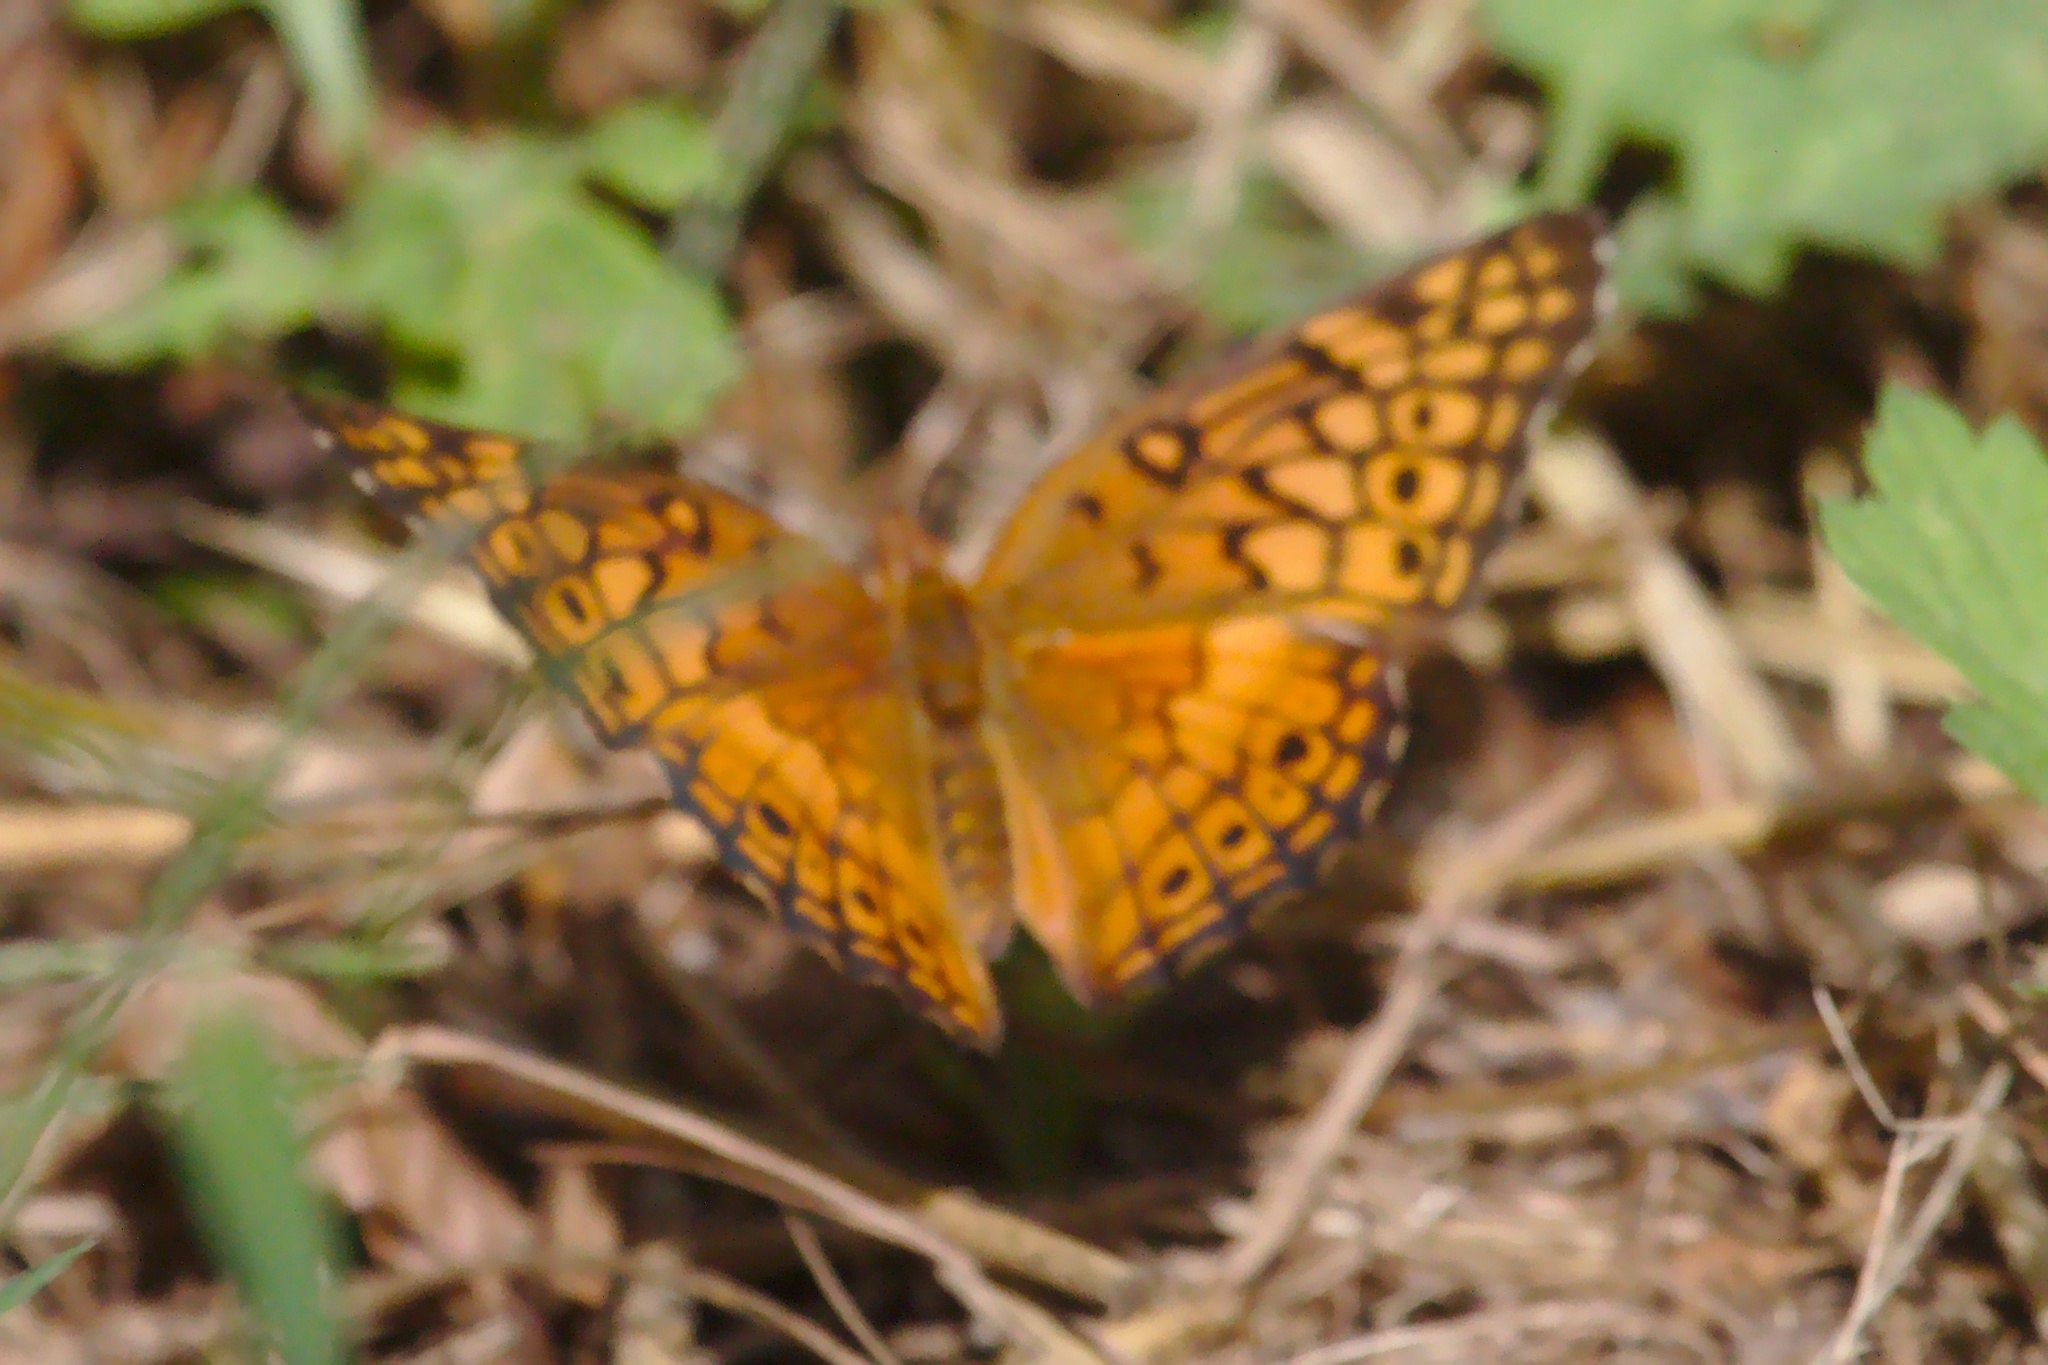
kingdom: Animalia
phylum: Arthropoda
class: Insecta
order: Lepidoptera
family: Nymphalidae
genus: Euptoieta
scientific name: Euptoieta claudia
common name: Variegated fritillary
